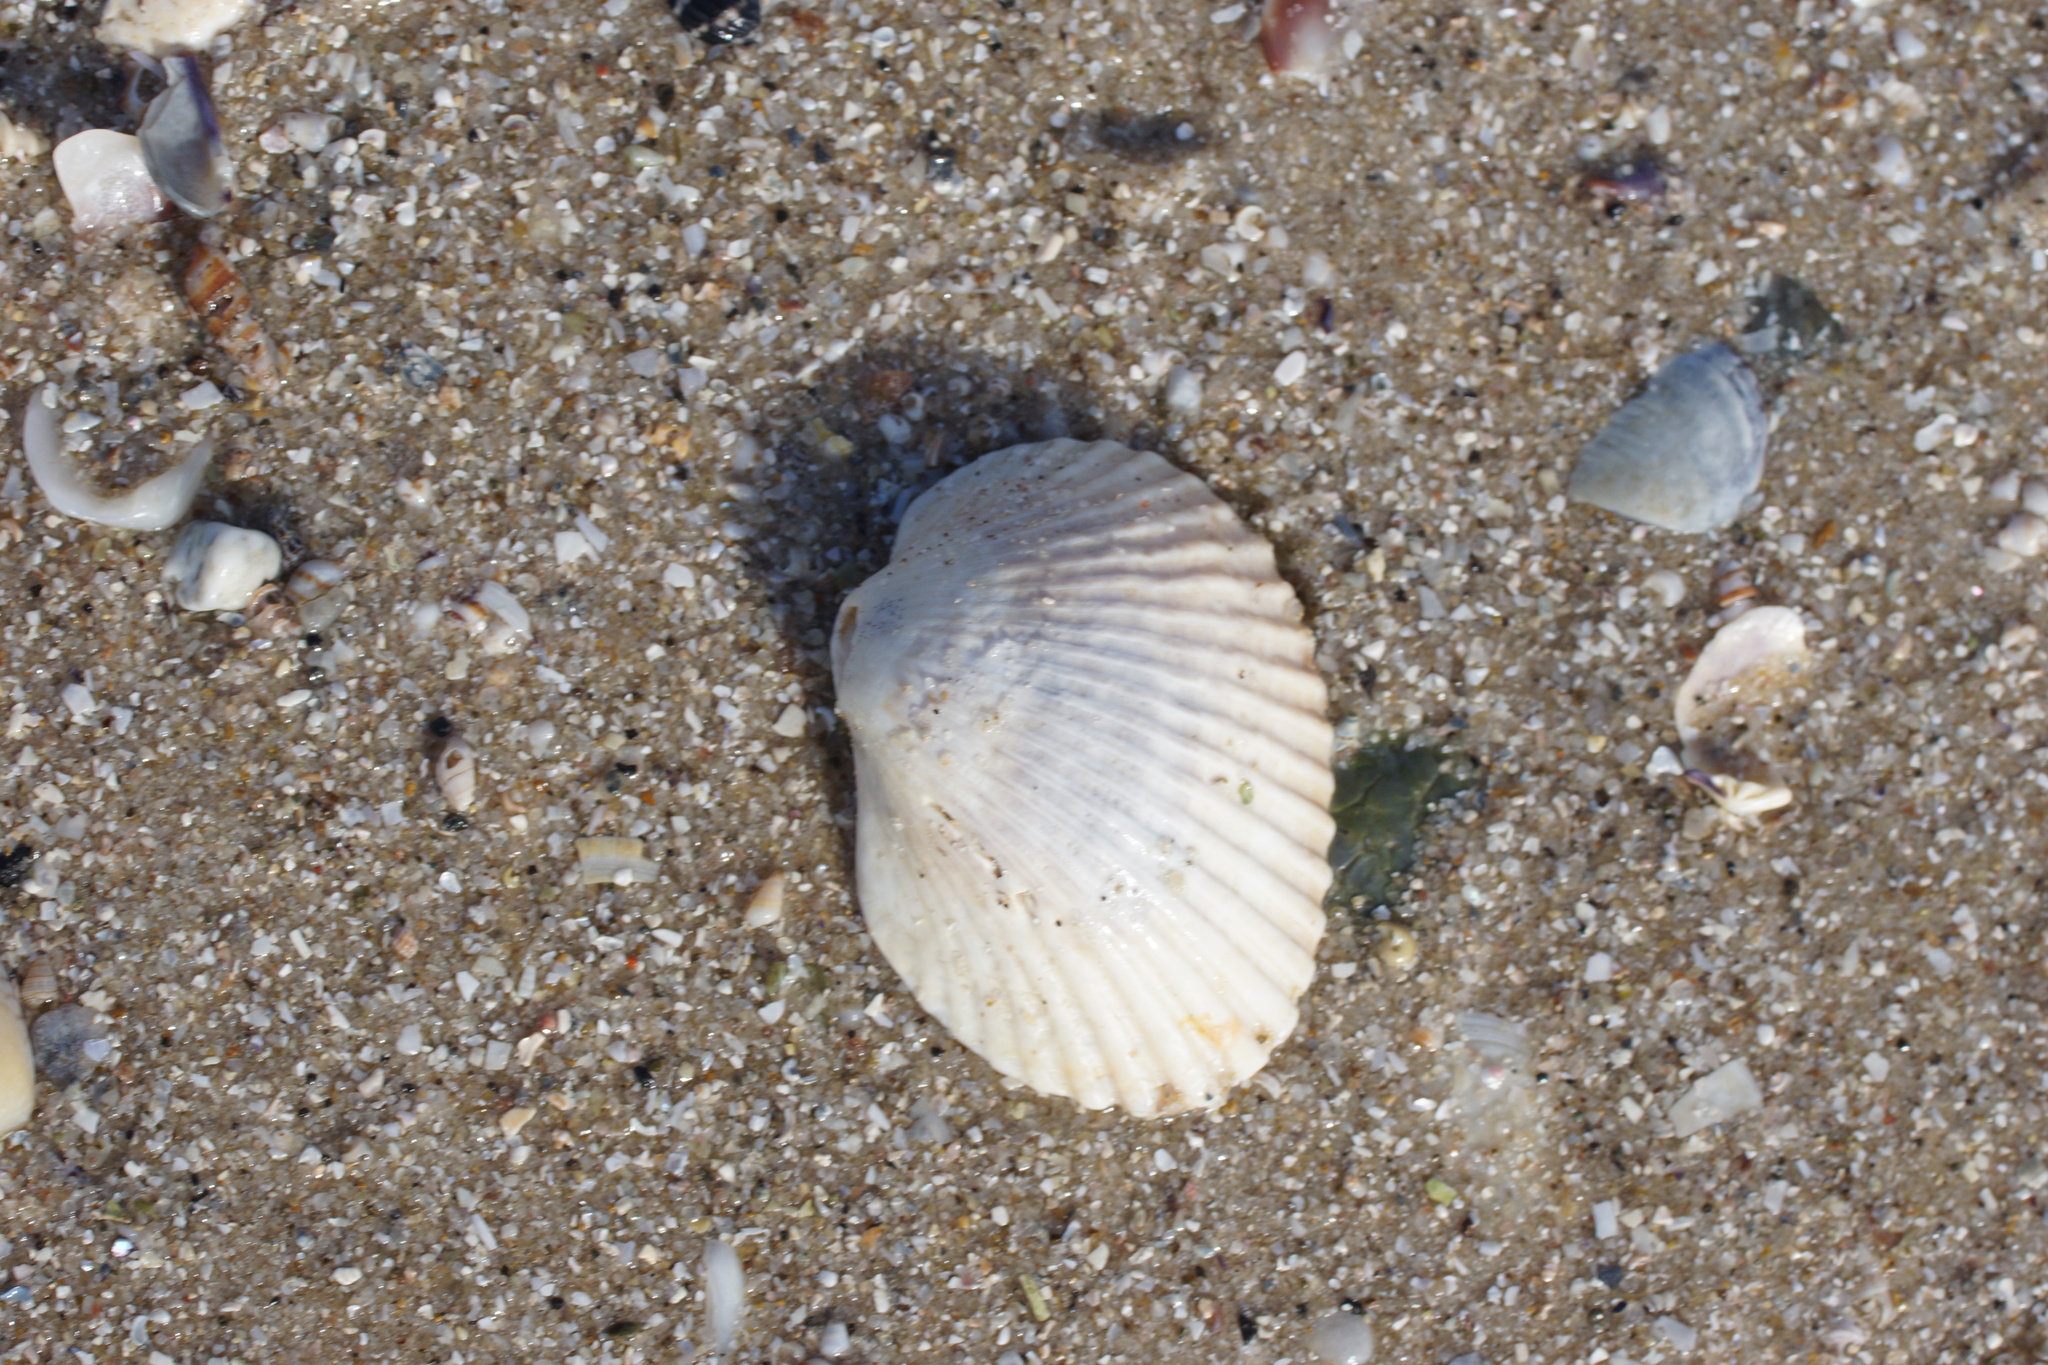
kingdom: Animalia
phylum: Mollusca
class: Bivalvia
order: Arcida
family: Arcidae
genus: Anadara
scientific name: Anadara trapezia
